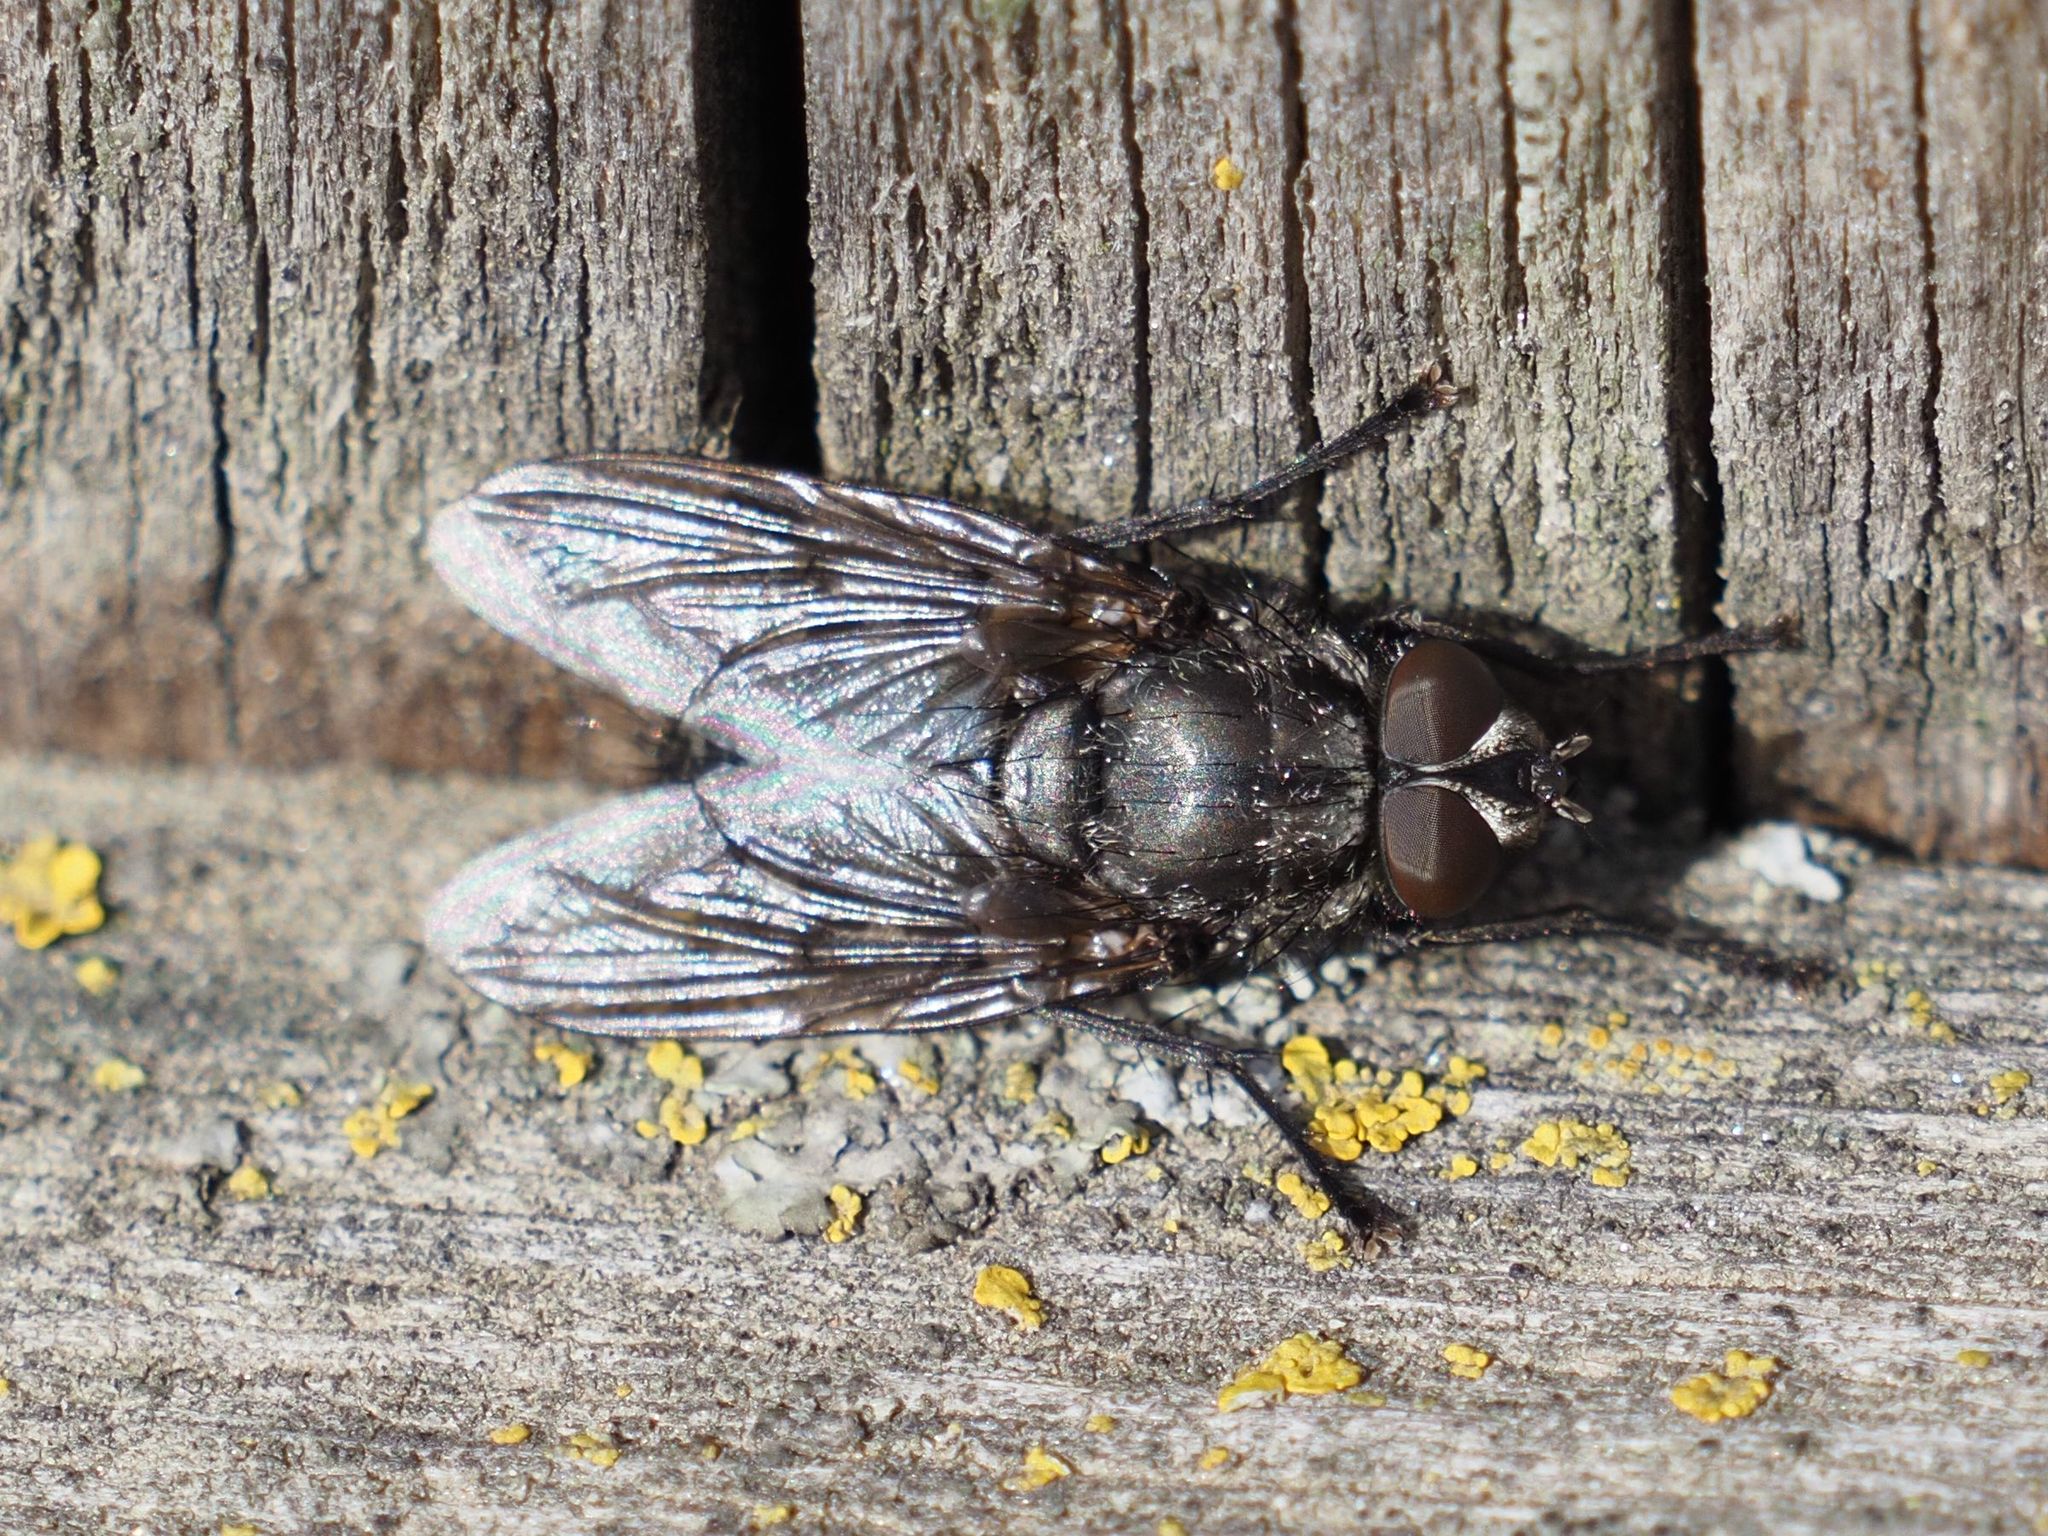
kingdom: Animalia
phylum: Arthropoda
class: Insecta
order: Diptera
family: Polleniidae
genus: Pollenia
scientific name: Pollenia vagabunda
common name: Vagabund cluster fly
